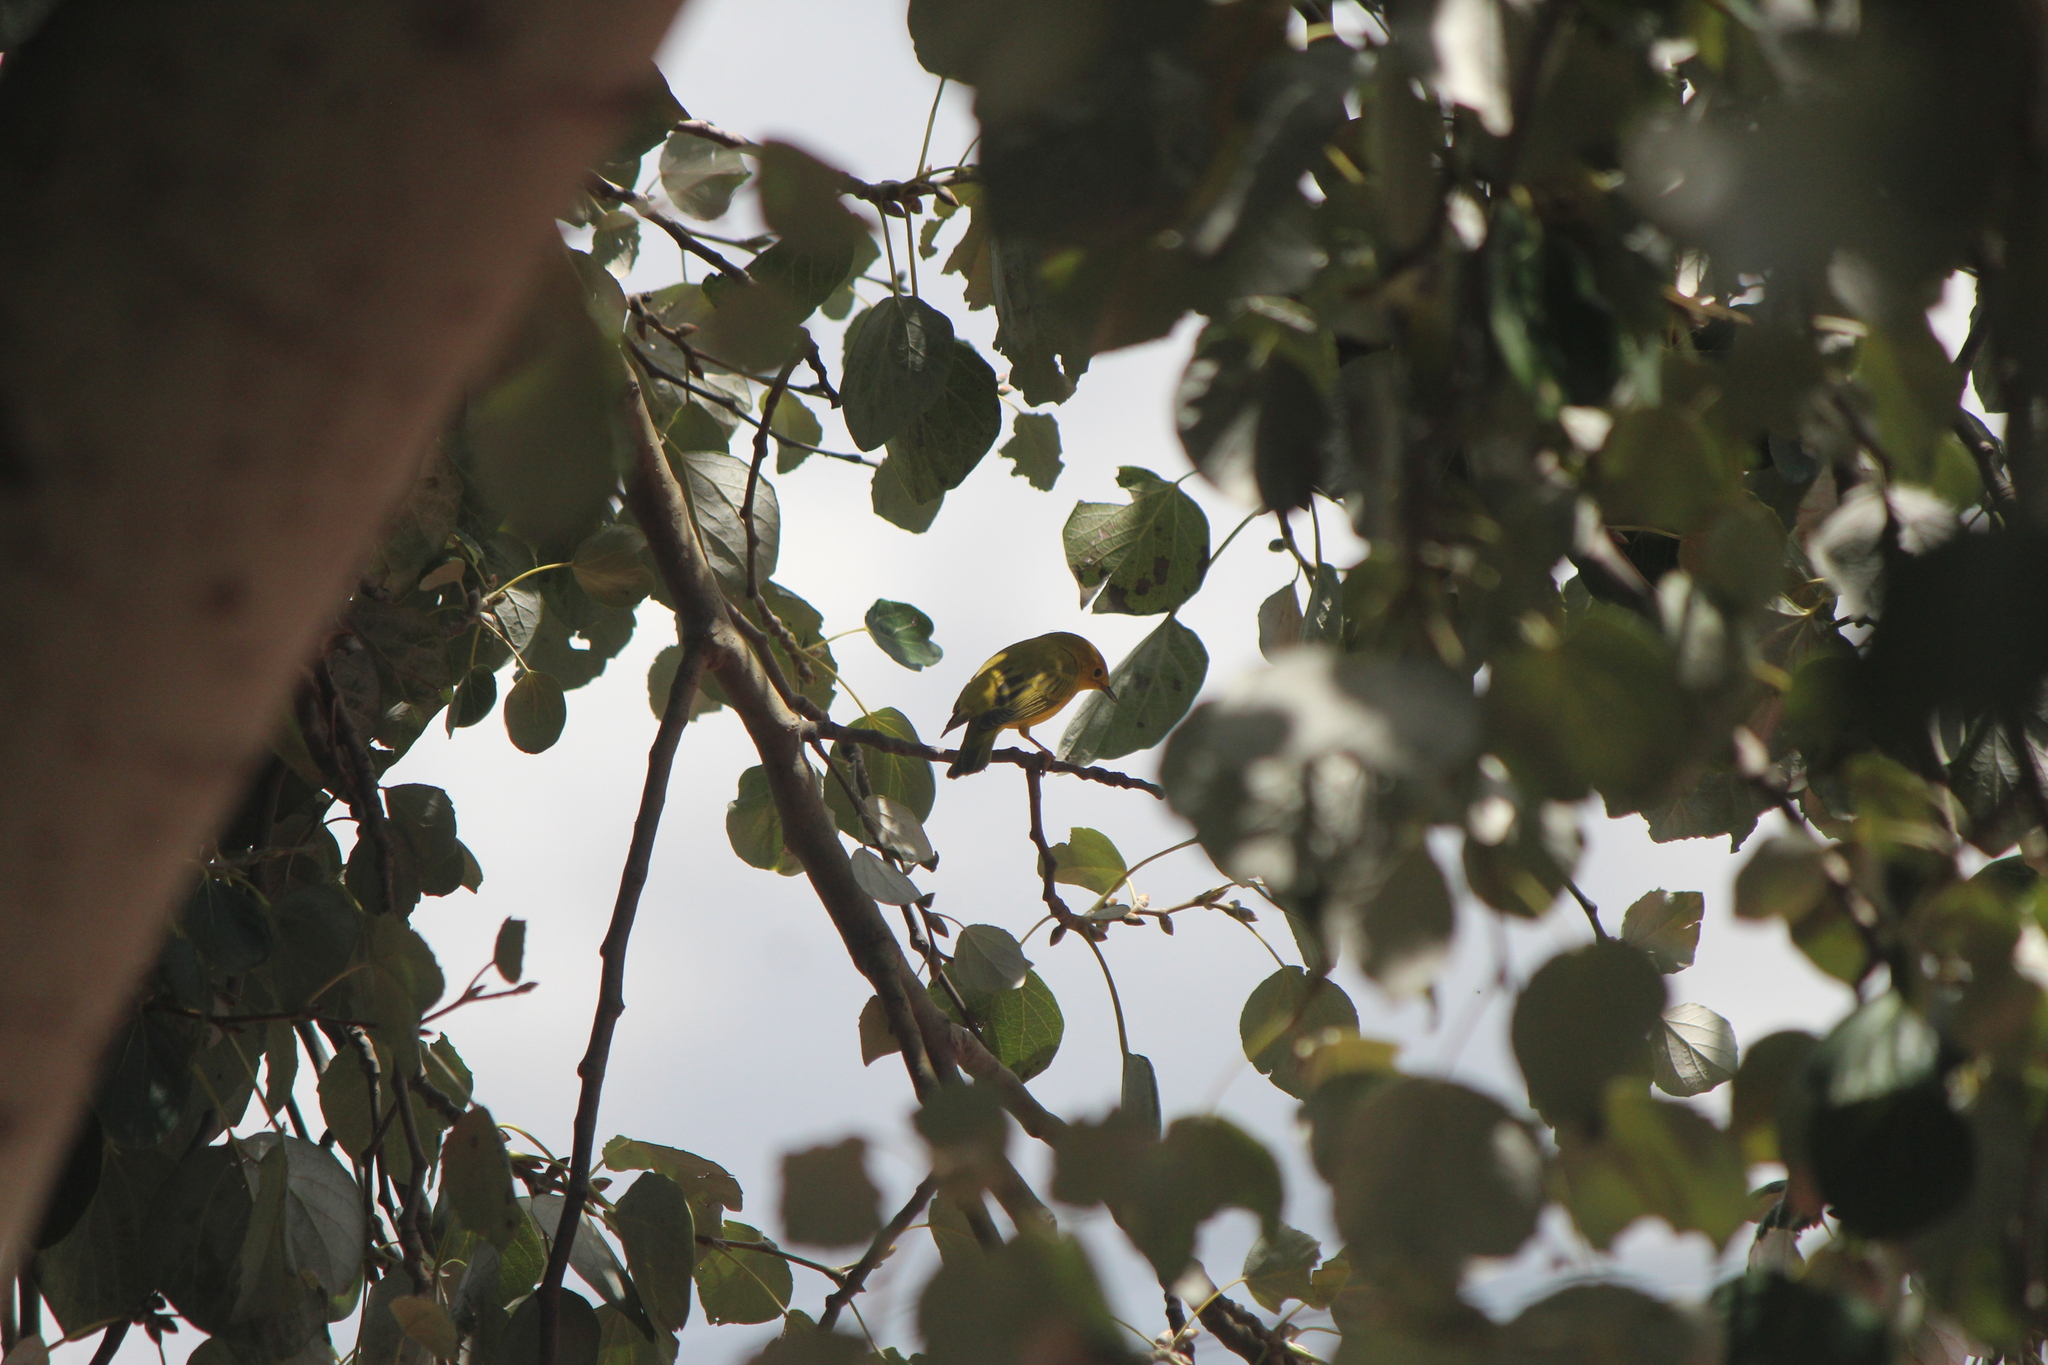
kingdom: Animalia
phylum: Chordata
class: Aves
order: Passeriformes
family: Parulidae
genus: Setophaga
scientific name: Setophaga petechia
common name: Yellow warbler
